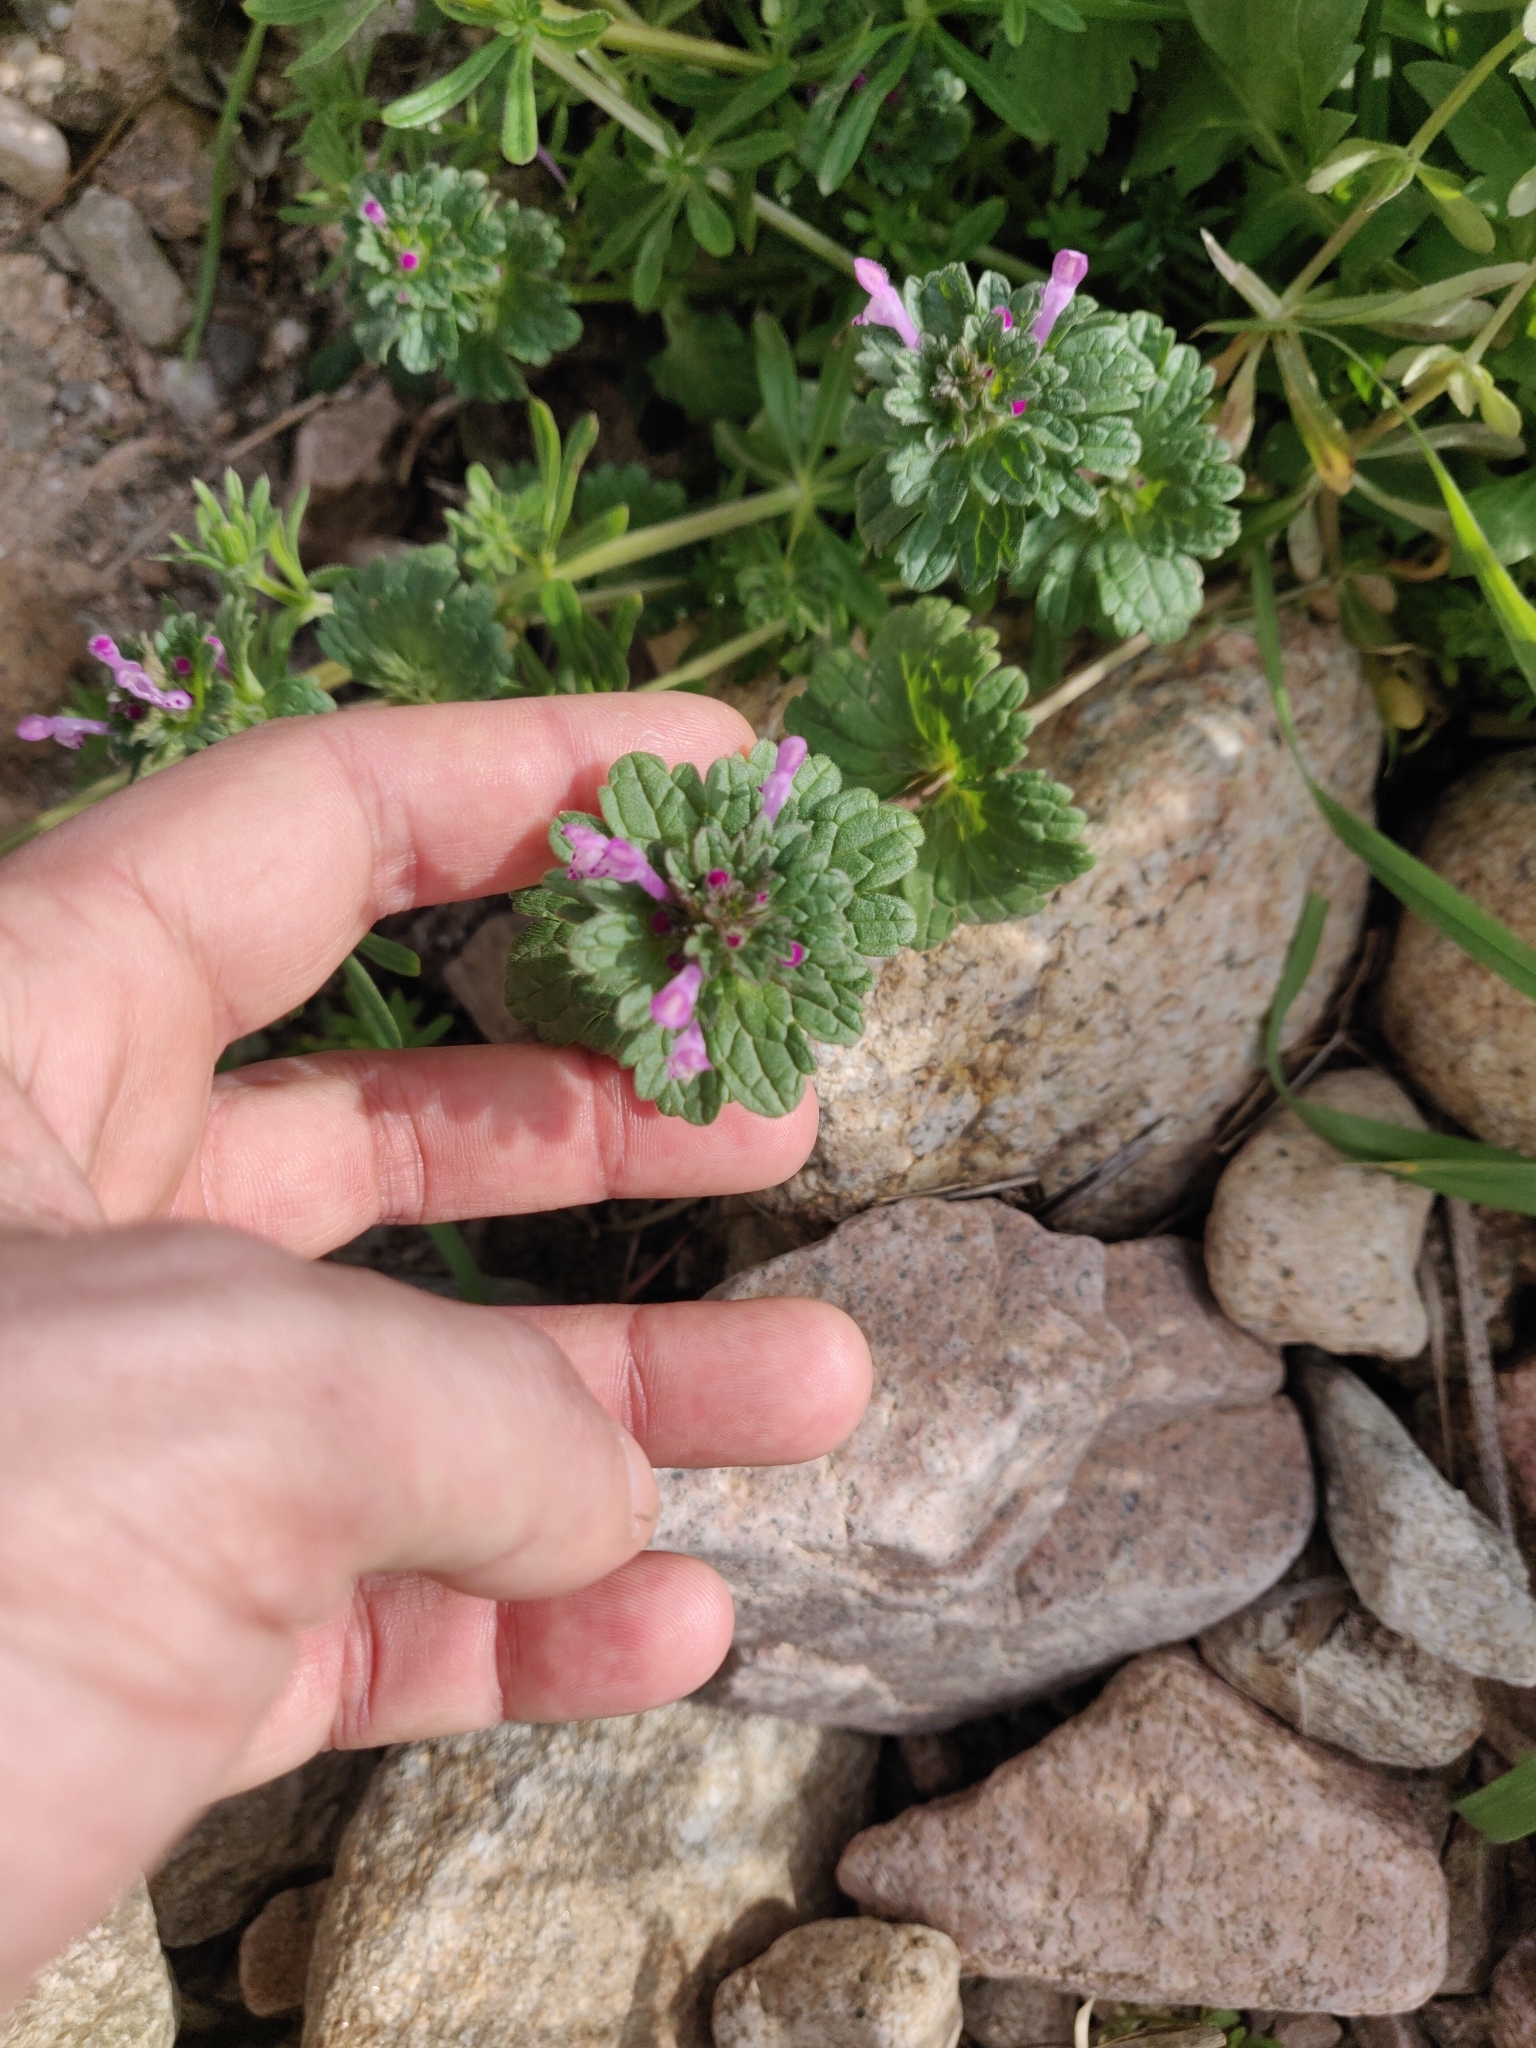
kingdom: Plantae
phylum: Tracheophyta
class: Magnoliopsida
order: Lamiales
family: Lamiaceae
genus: Lamium
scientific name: Lamium amplexicaule
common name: Henbit dead-nettle
